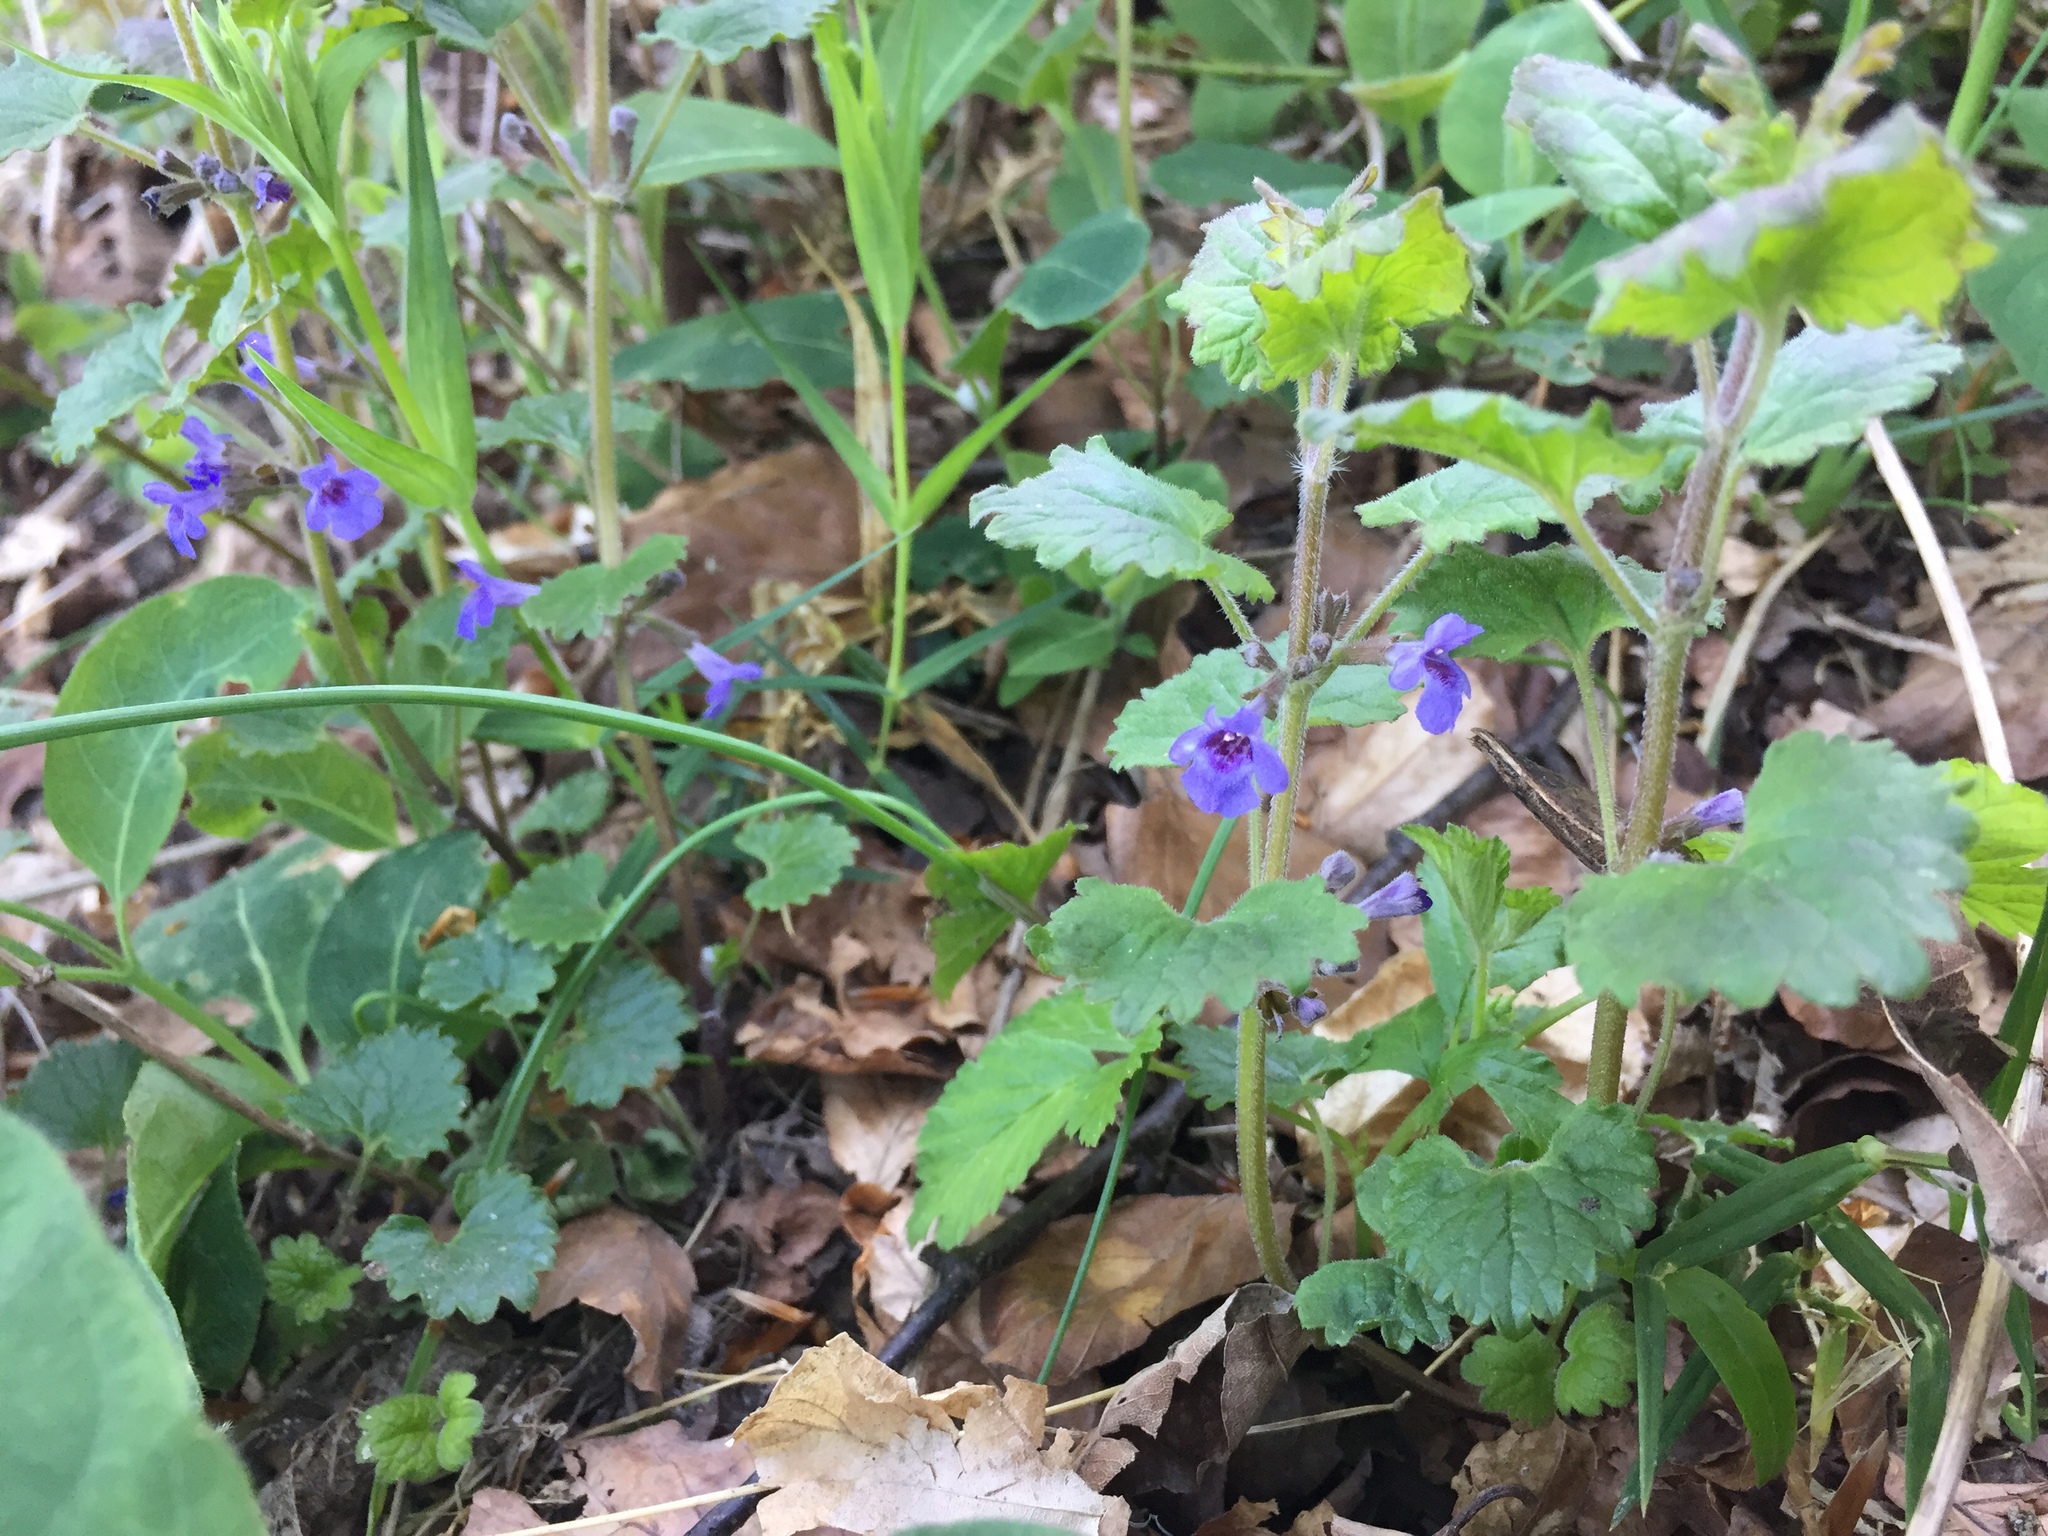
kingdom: Plantae
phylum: Tracheophyta
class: Magnoliopsida
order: Lamiales
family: Lamiaceae
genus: Glechoma
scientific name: Glechoma hederacea
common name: Ground ivy
